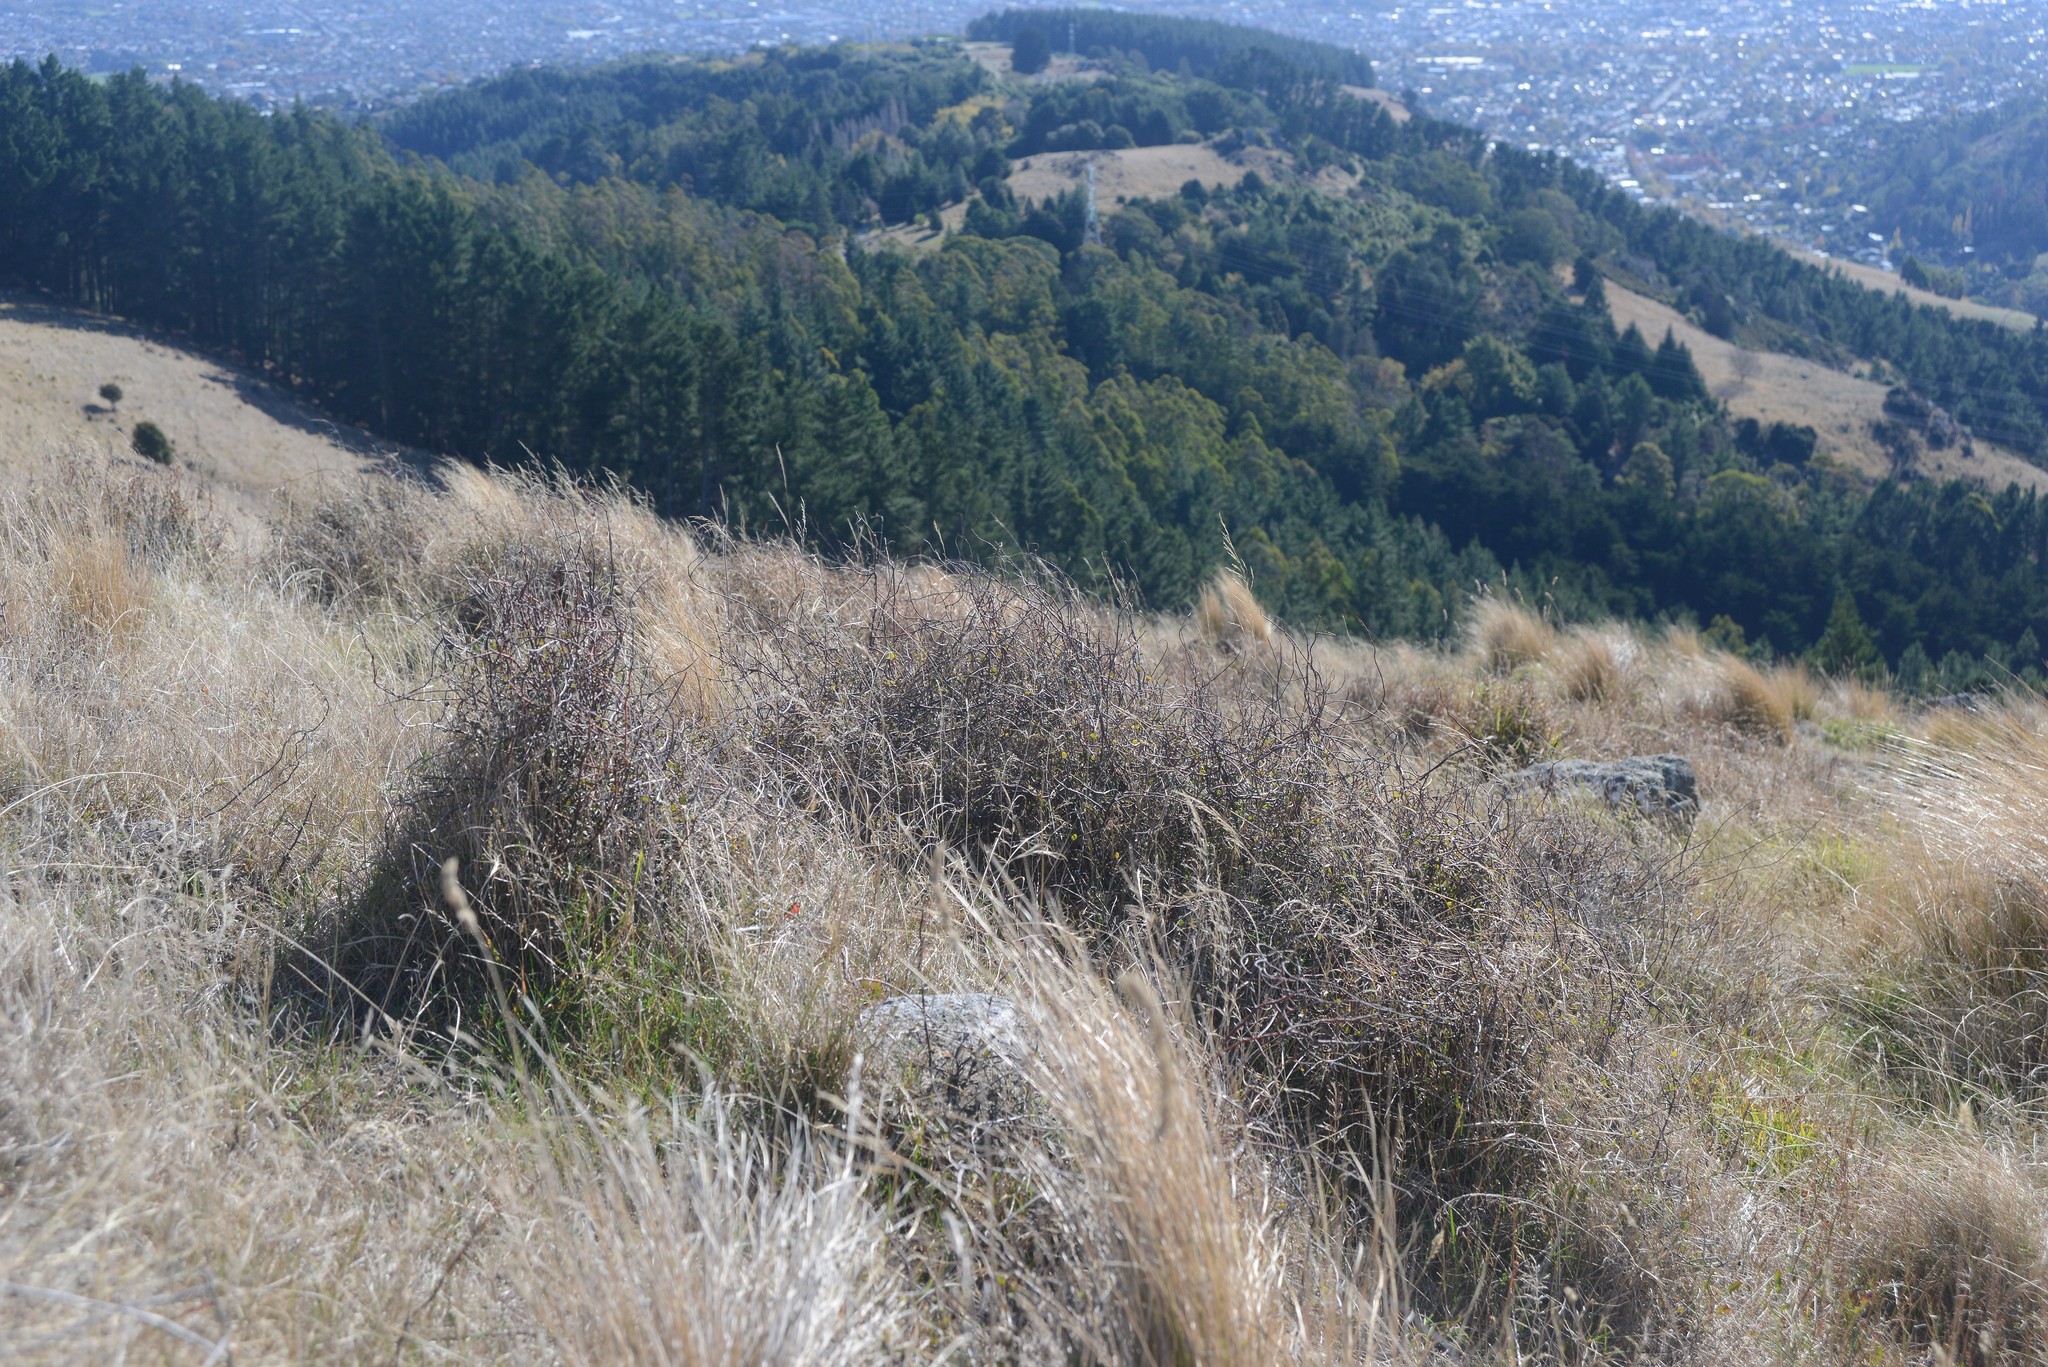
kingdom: Plantae
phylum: Tracheophyta
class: Magnoliopsida
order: Caryophyllales
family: Polygonaceae
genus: Muehlenbeckia
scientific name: Muehlenbeckia complexa
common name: Wireplant
